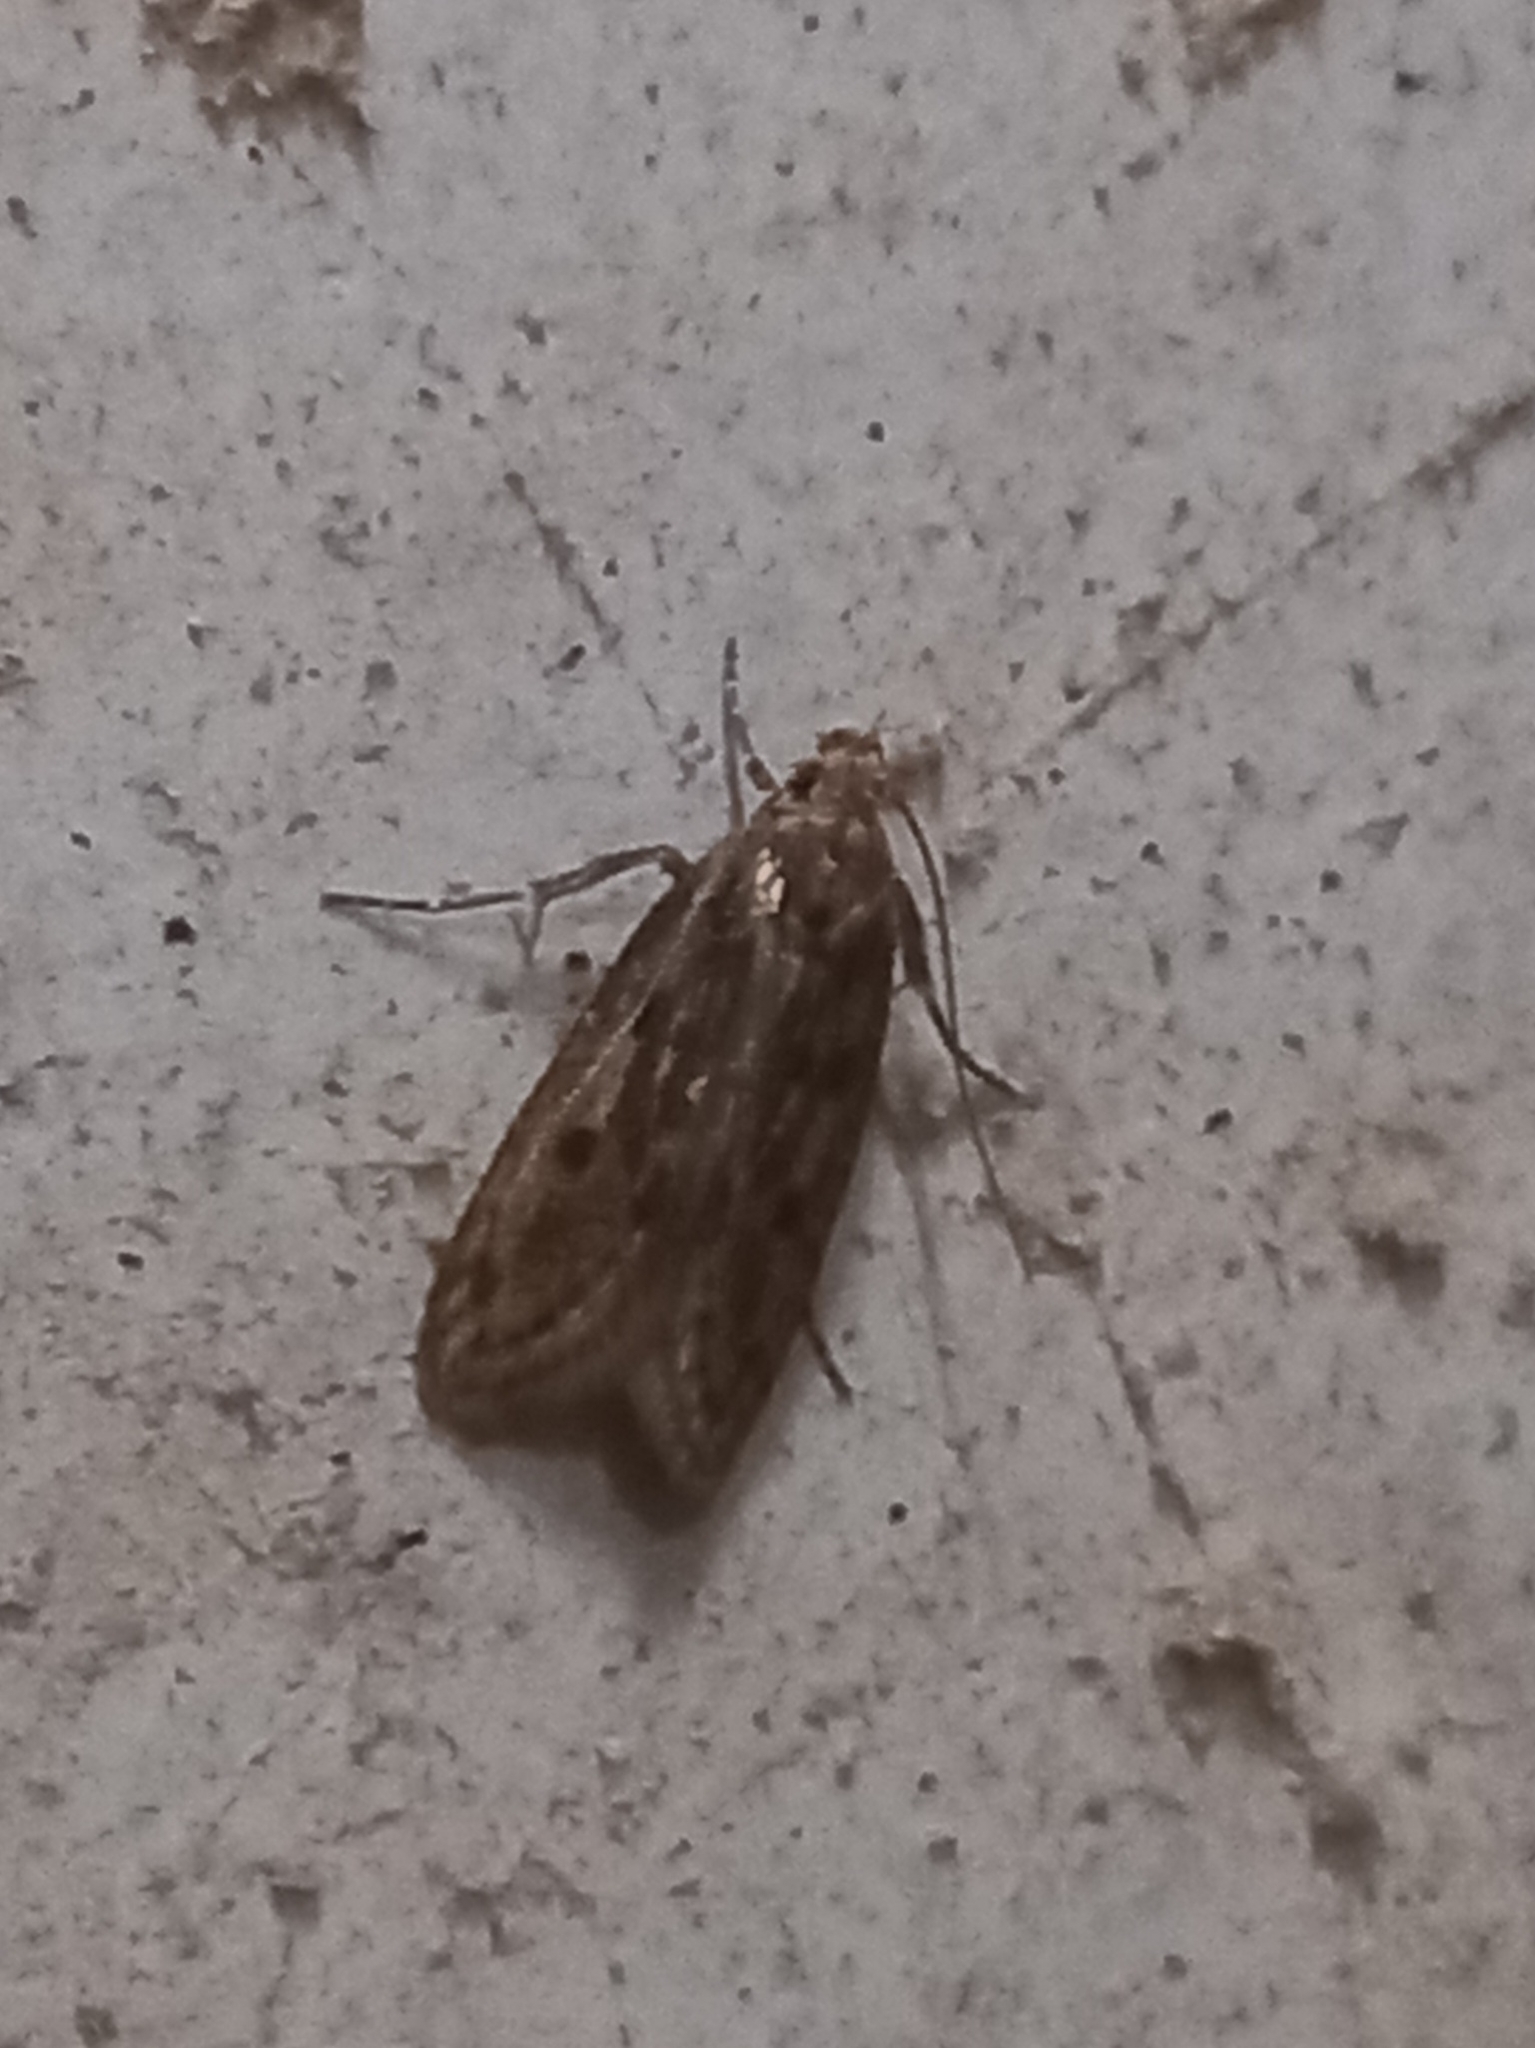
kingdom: Animalia
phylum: Arthropoda
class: Insecta
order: Lepidoptera
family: Oecophoridae
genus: Hofmannophila
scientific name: Hofmannophila pseudospretella
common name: Brown house moth
